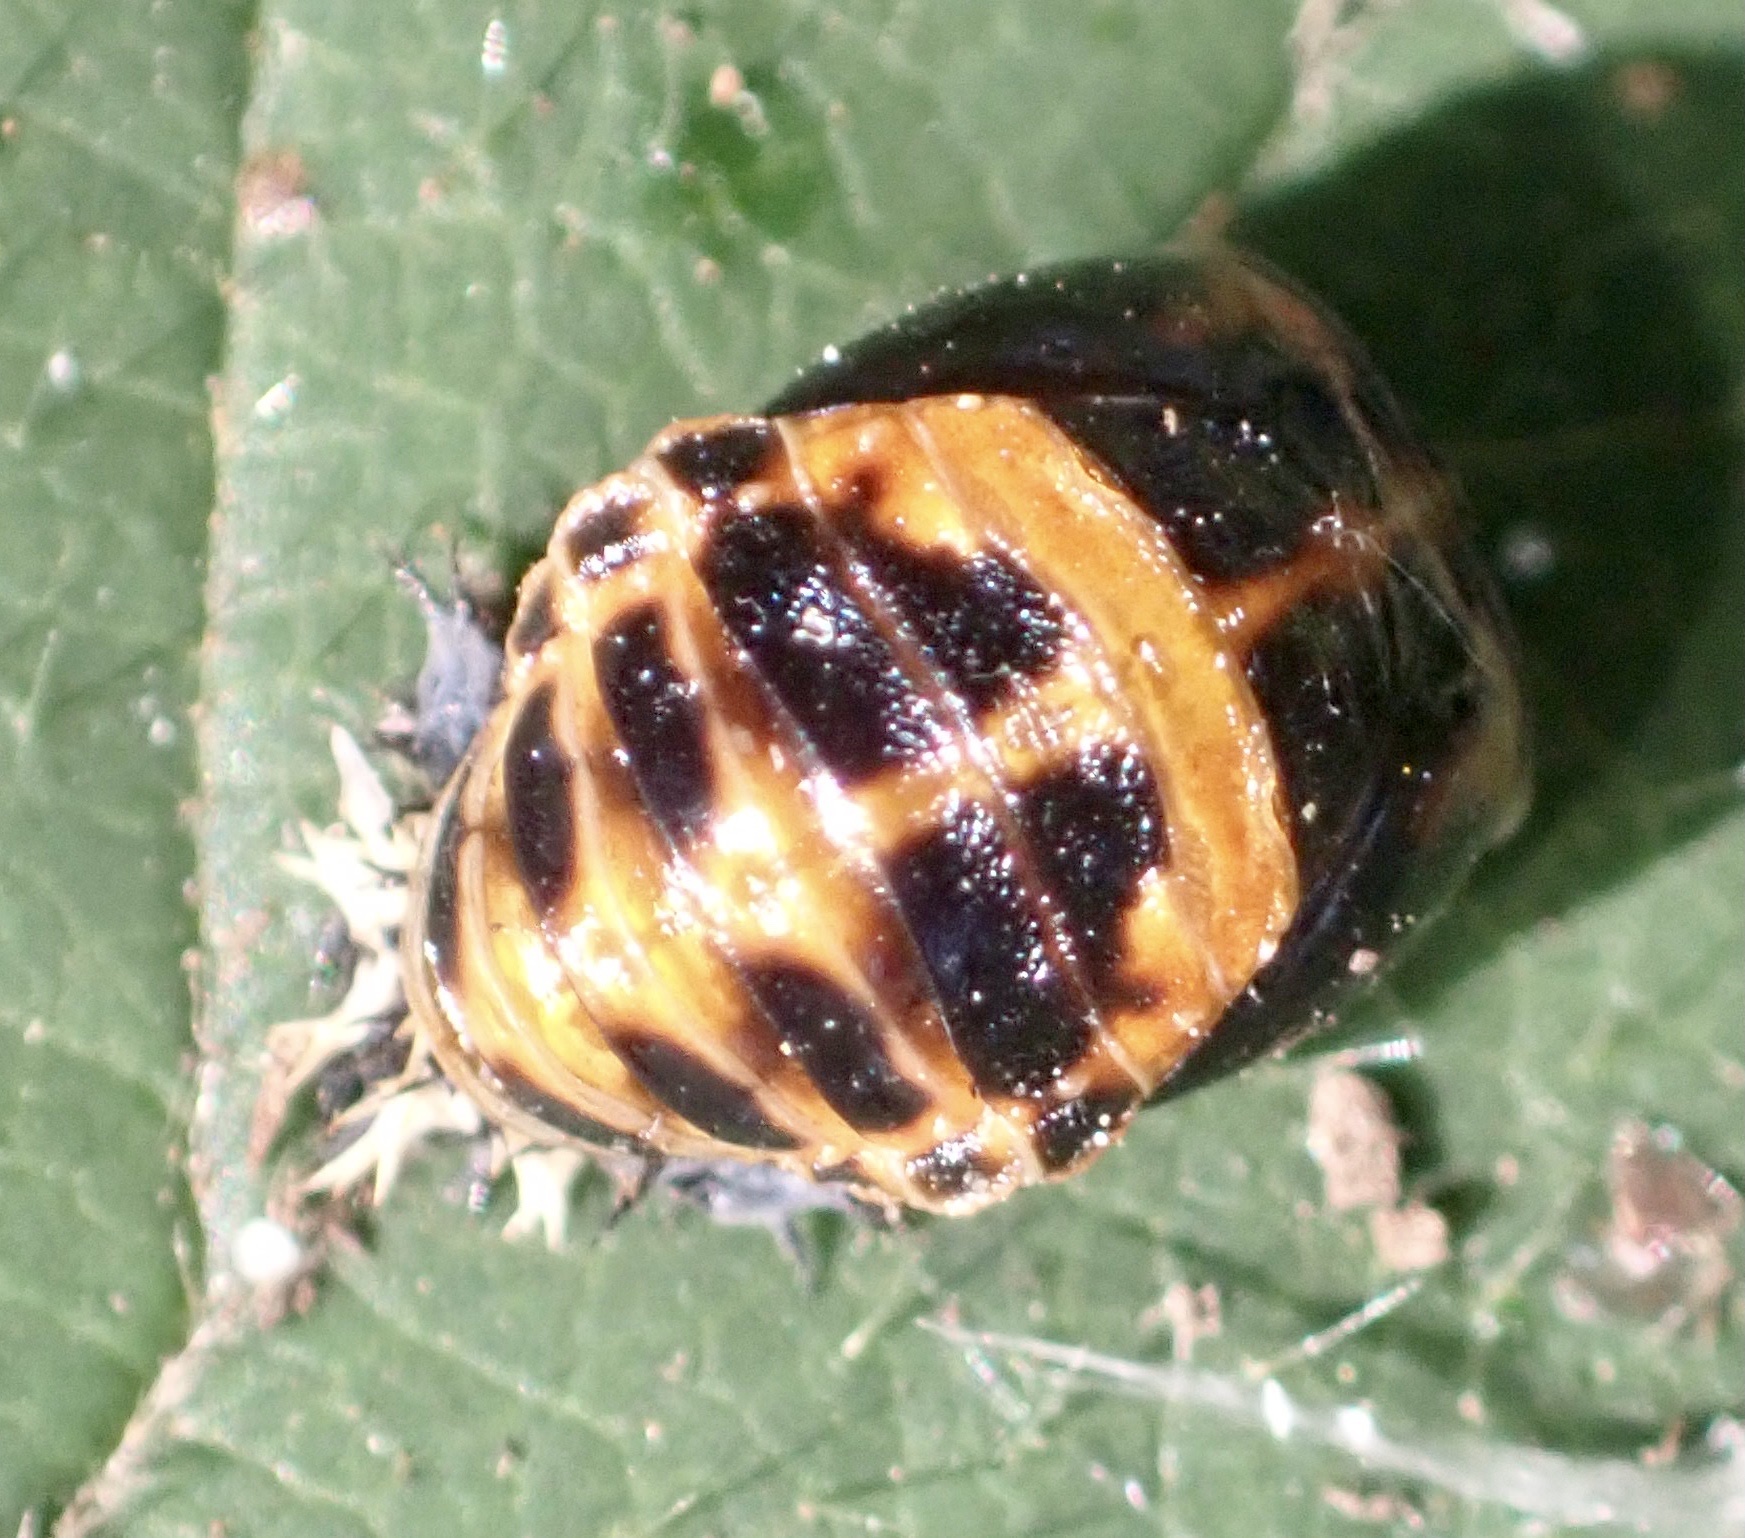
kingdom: Animalia
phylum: Arthropoda
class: Insecta
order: Coleoptera
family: Coccinellidae
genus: Harmonia
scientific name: Harmonia axyridis
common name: Harlequin ladybird
